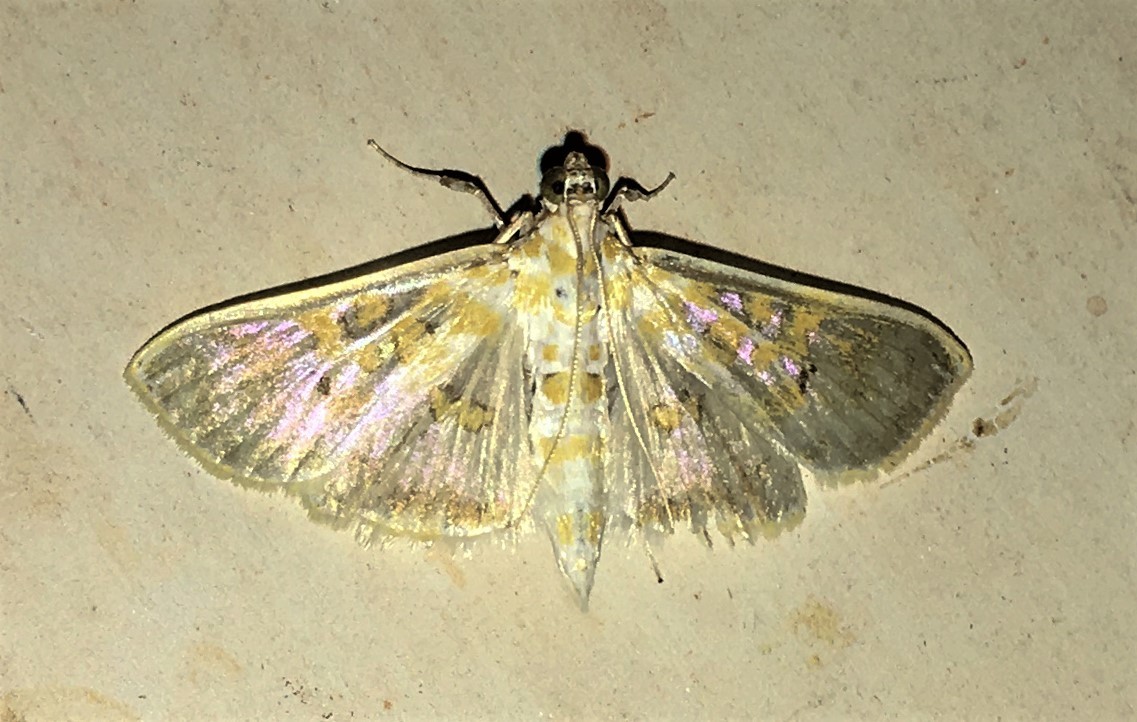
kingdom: Animalia
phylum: Arthropoda
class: Insecta
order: Lepidoptera
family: Crambidae
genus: Leucochroma
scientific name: Leucochroma corope
